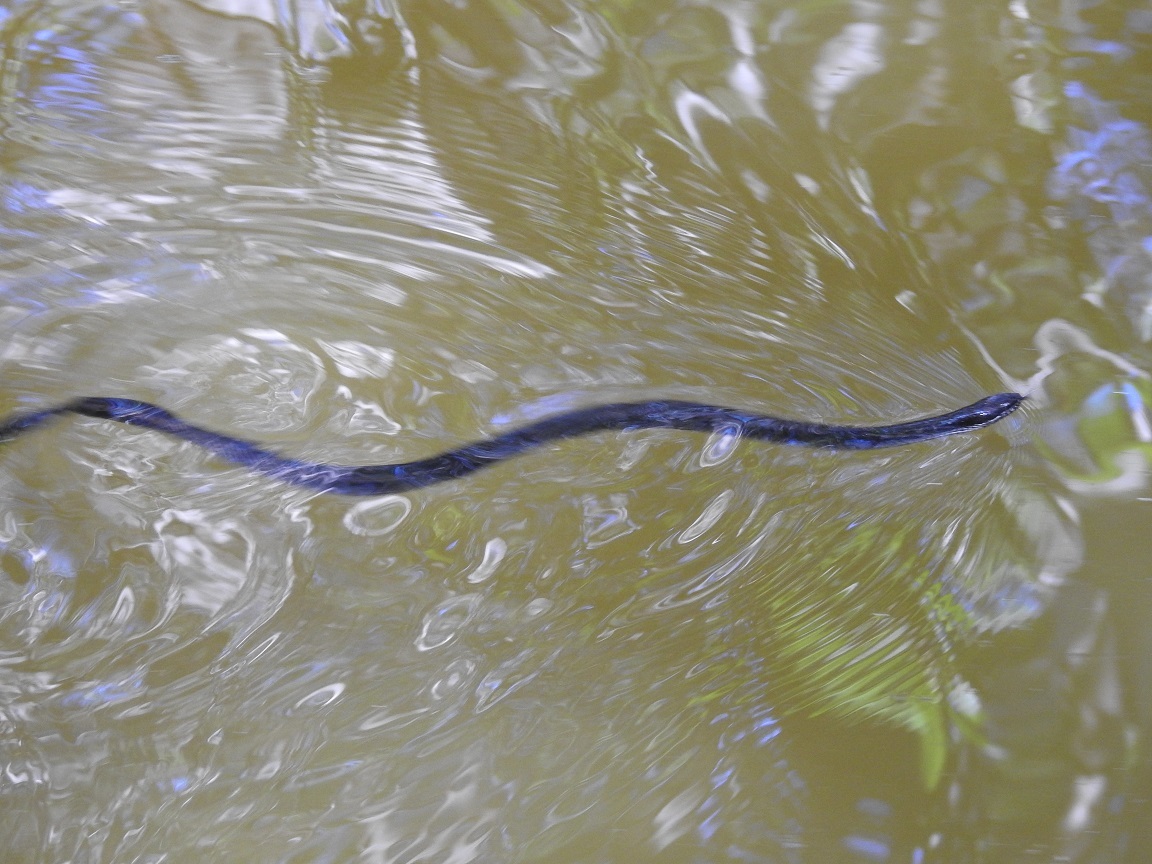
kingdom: Animalia
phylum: Chordata
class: Squamata
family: Colubridae
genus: Coniophanes
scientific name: Coniophanes bipunctatus
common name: Two-spotted snake
